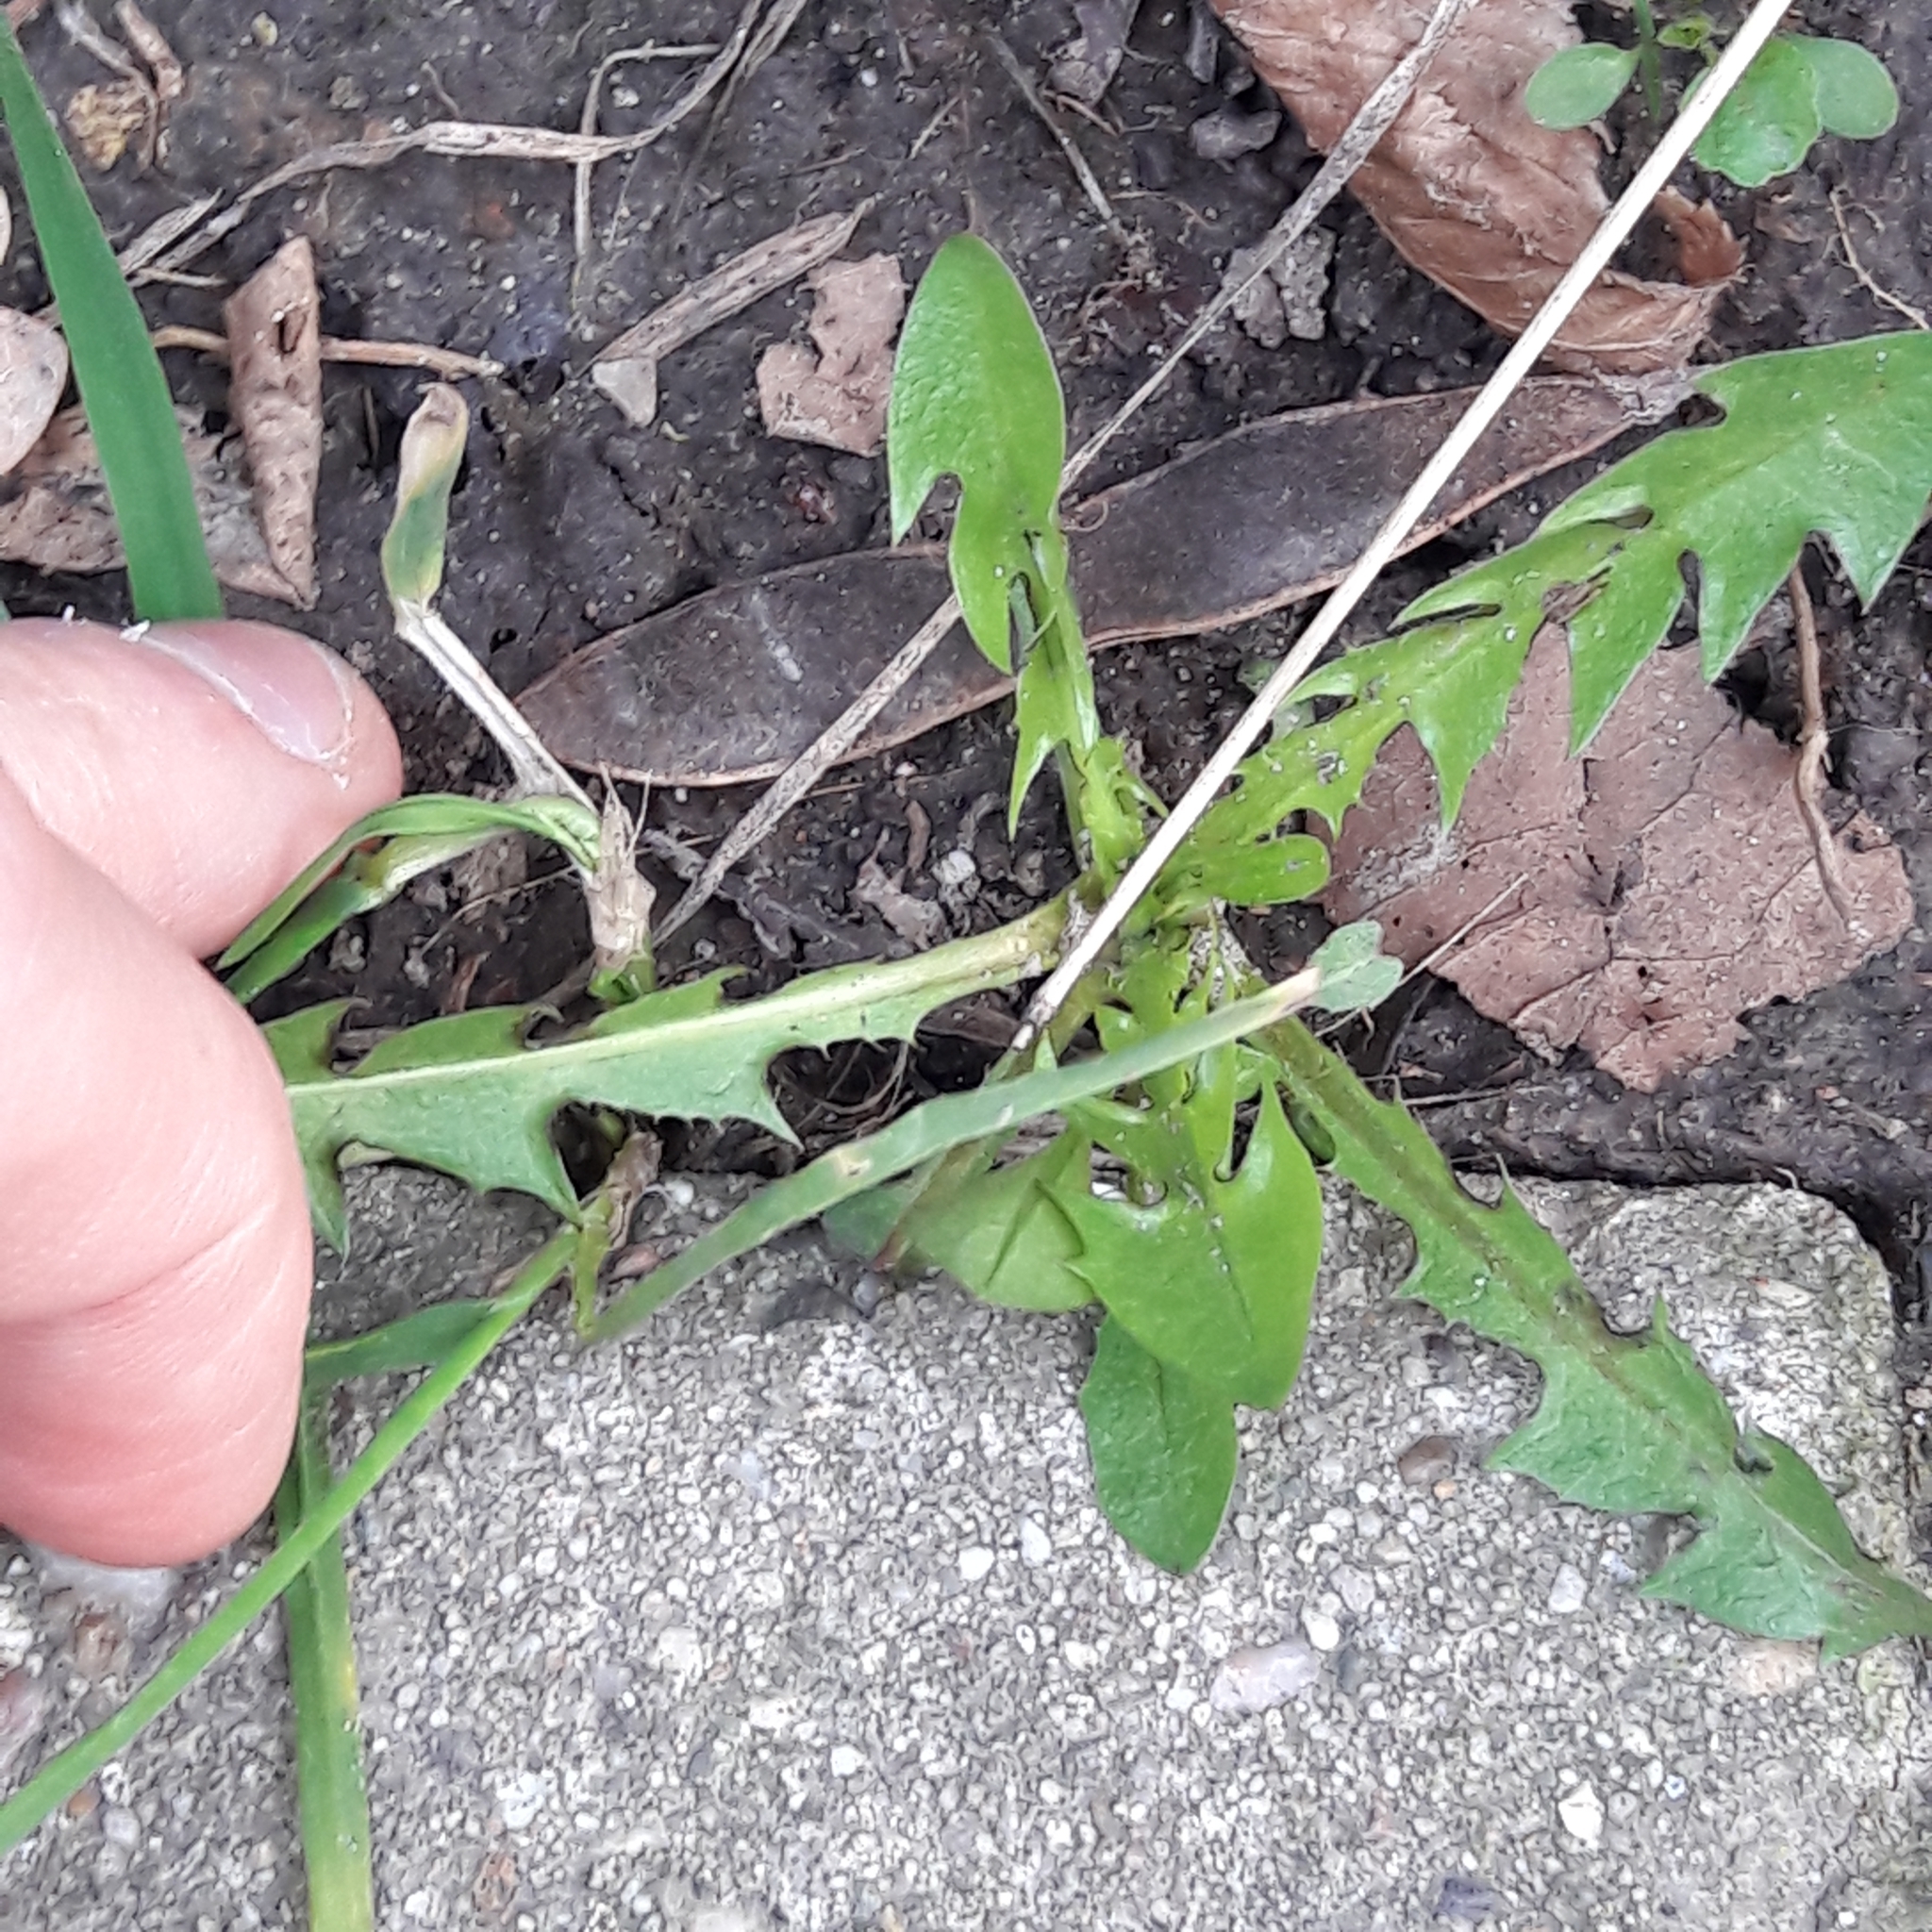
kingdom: Plantae
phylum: Tracheophyta
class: Magnoliopsida
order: Asterales
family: Asteraceae
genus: Taraxacum
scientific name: Taraxacum officinale
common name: Common dandelion
